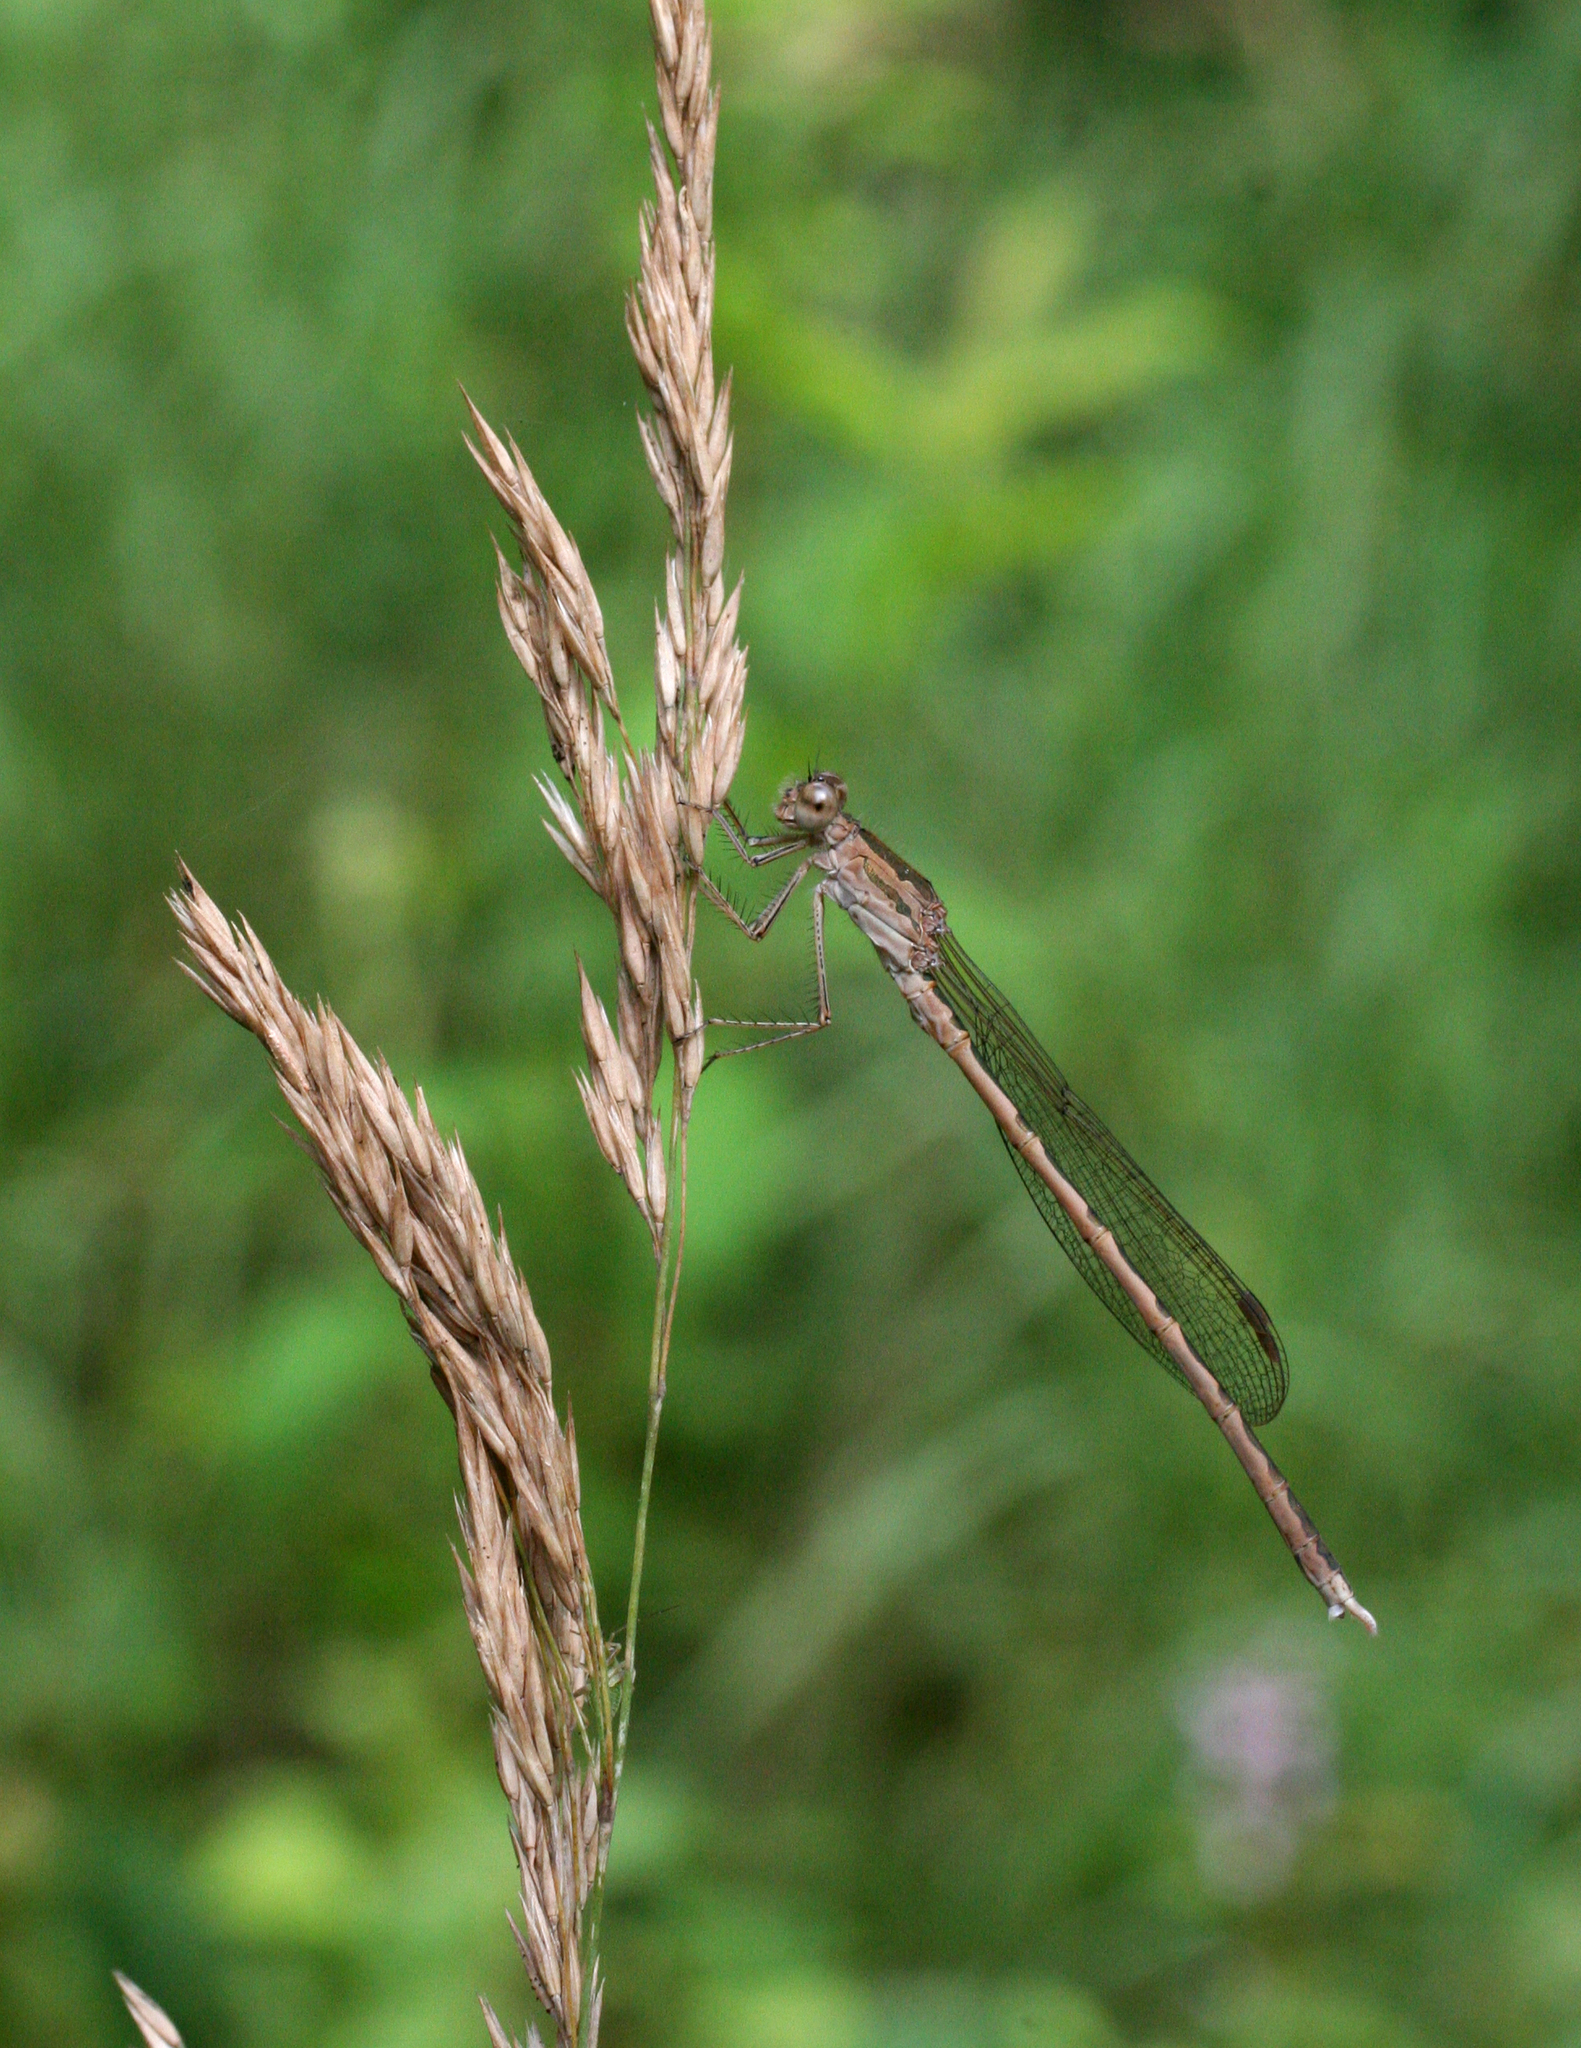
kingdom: Animalia
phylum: Arthropoda
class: Insecta
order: Odonata
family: Lestidae
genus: Sympecma
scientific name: Sympecma paedisca
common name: Siberian winter damsel
